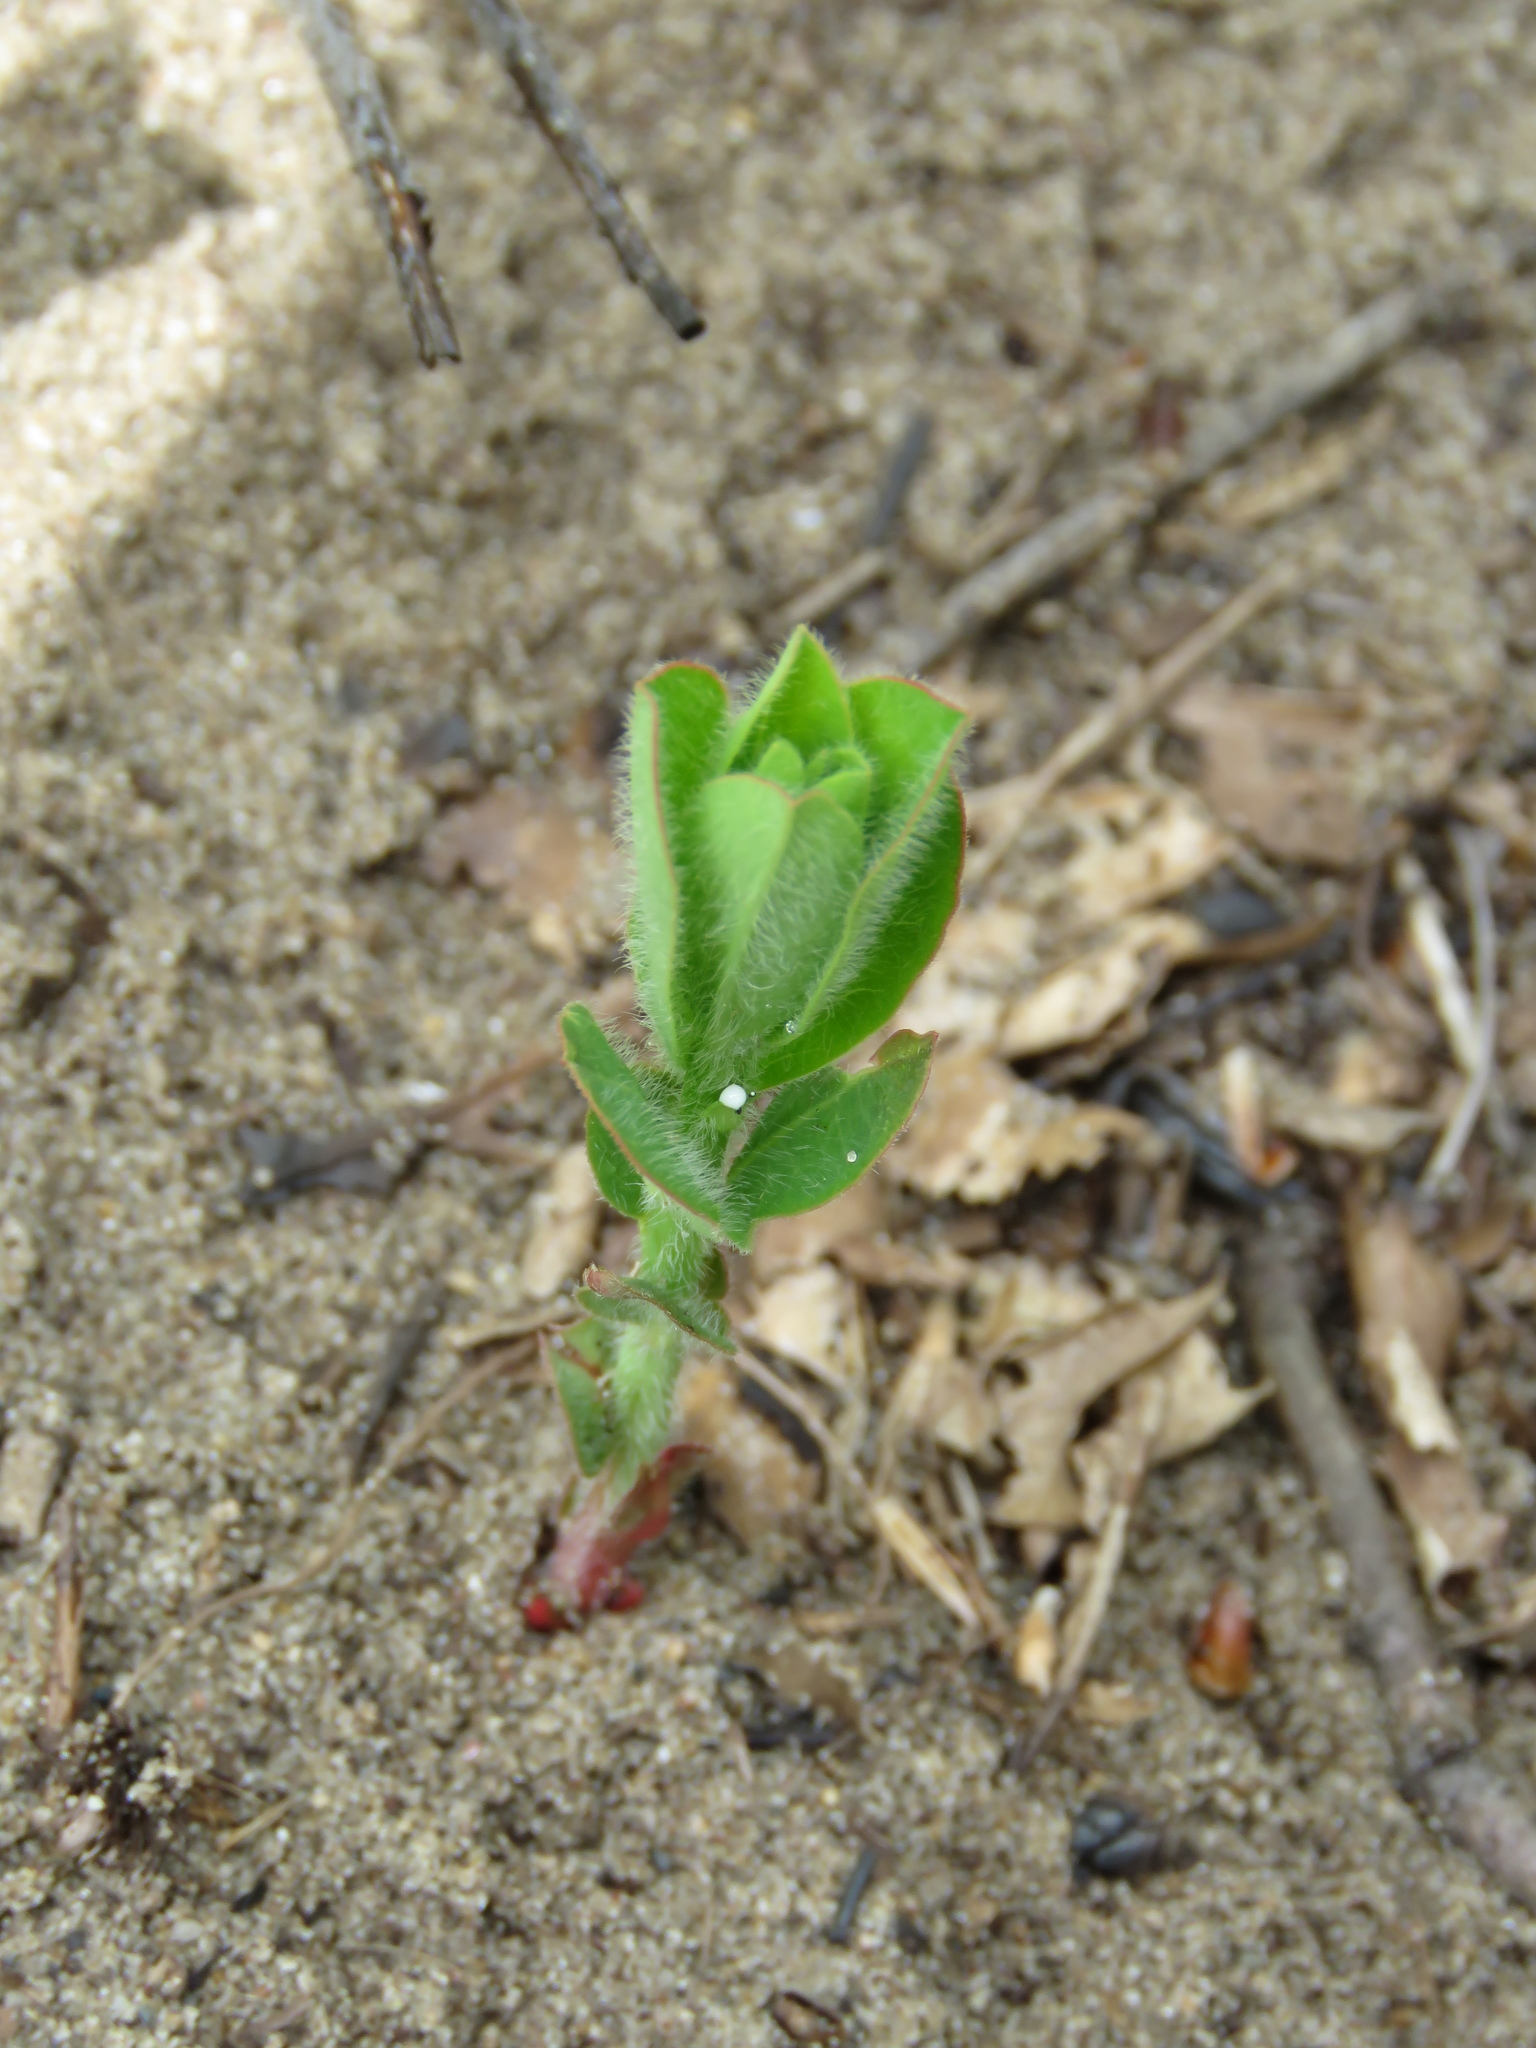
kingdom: Plantae
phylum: Tracheophyta
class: Magnoliopsida
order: Malpighiales
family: Euphorbiaceae
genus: Euphorbia
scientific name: Euphorbia corollata
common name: Flowering spurge
